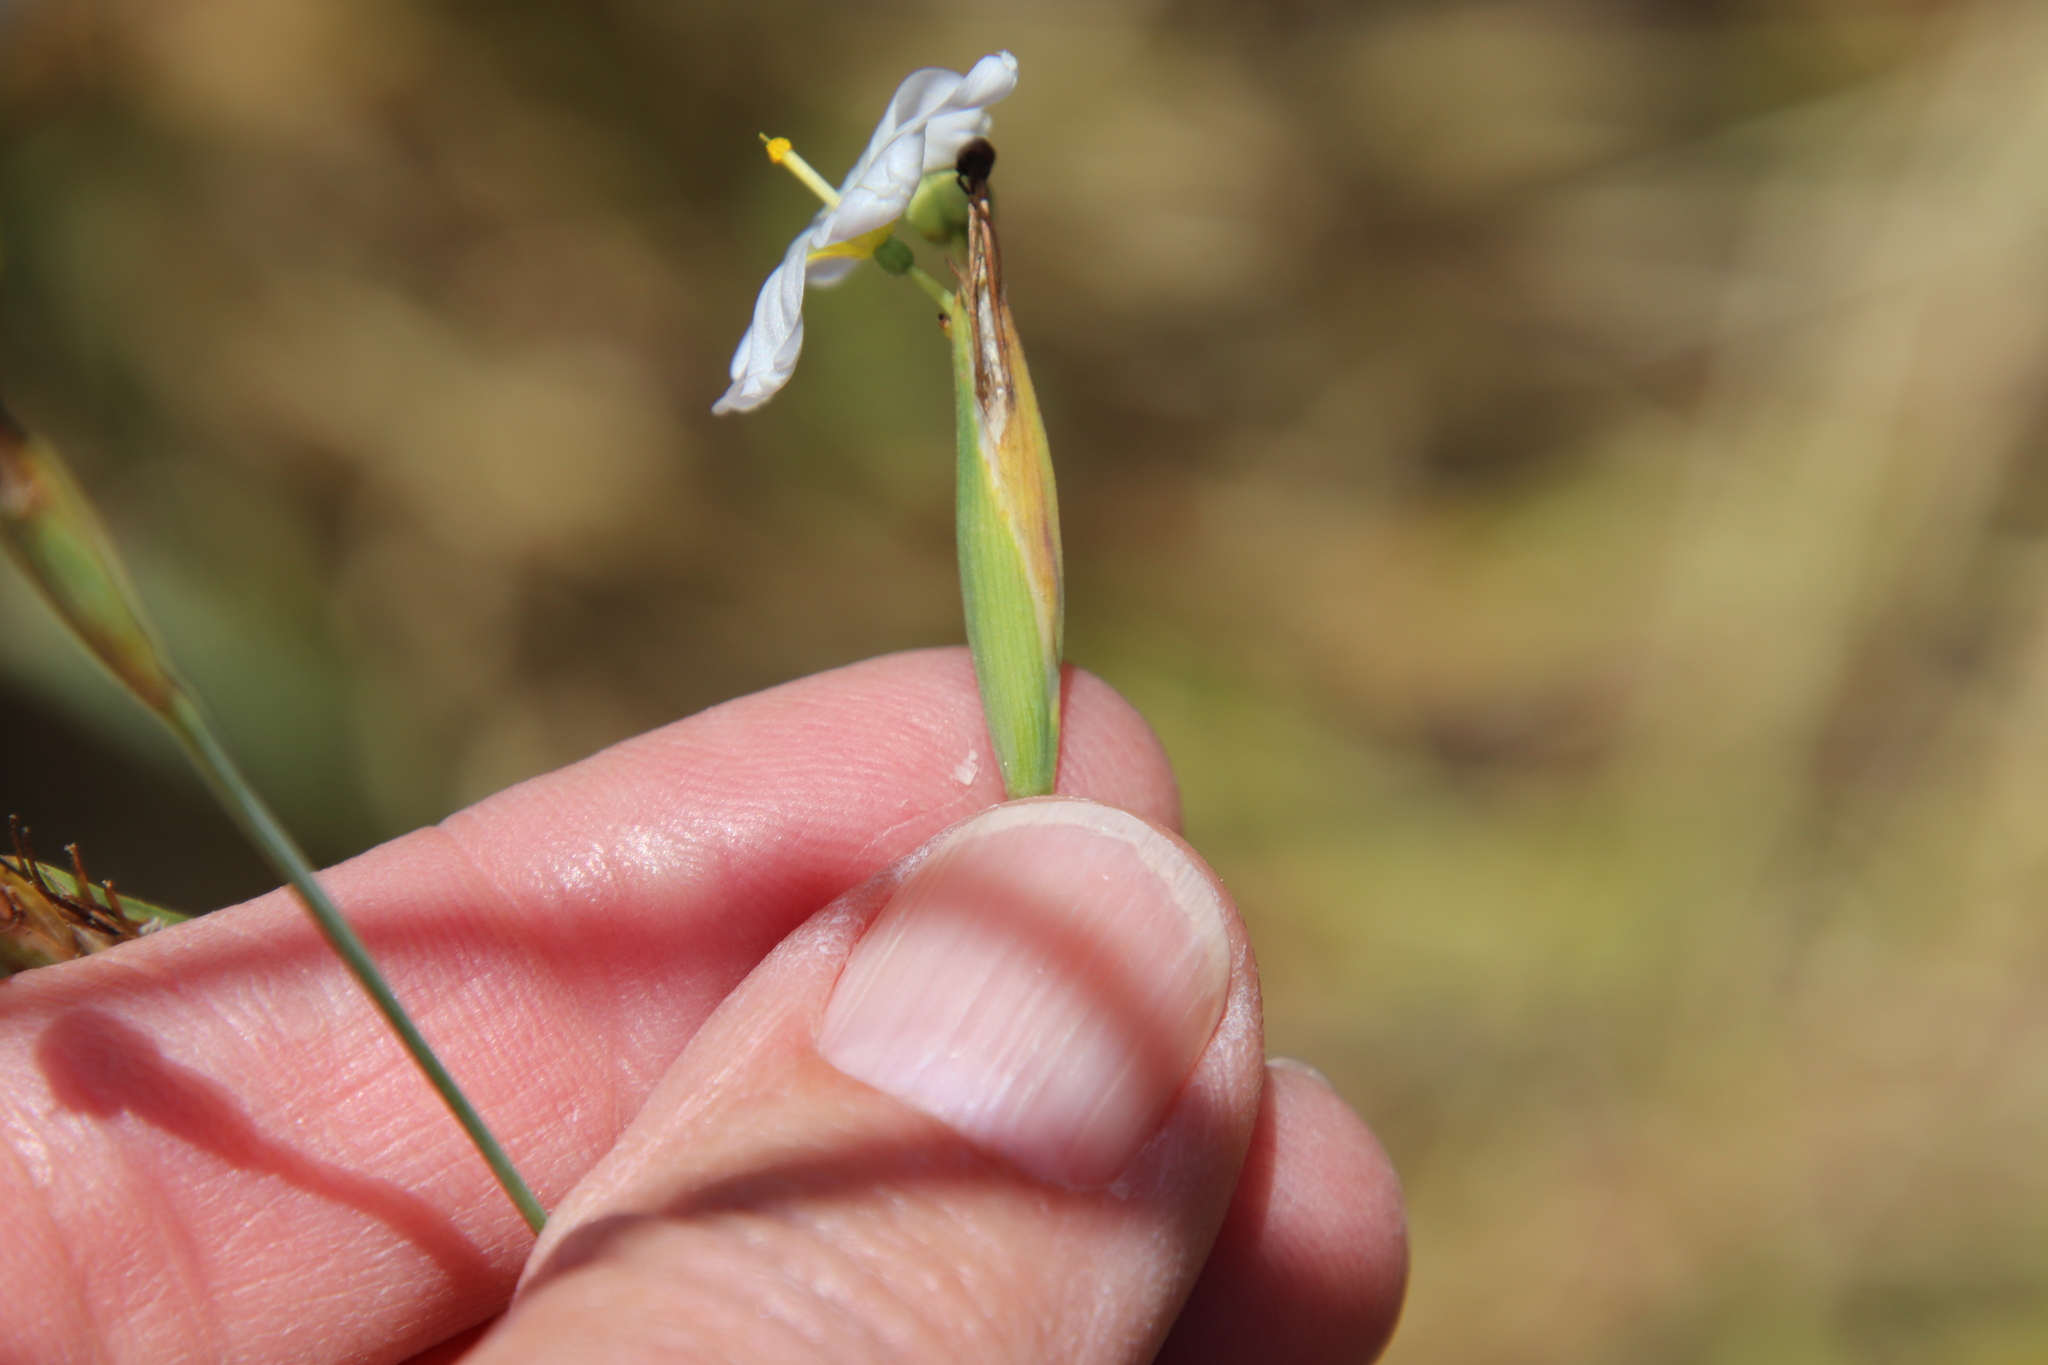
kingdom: Plantae
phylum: Tracheophyta
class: Liliopsida
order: Asparagales
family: Iridaceae
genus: Sisyrinchium
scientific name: Sisyrinchium bellum
